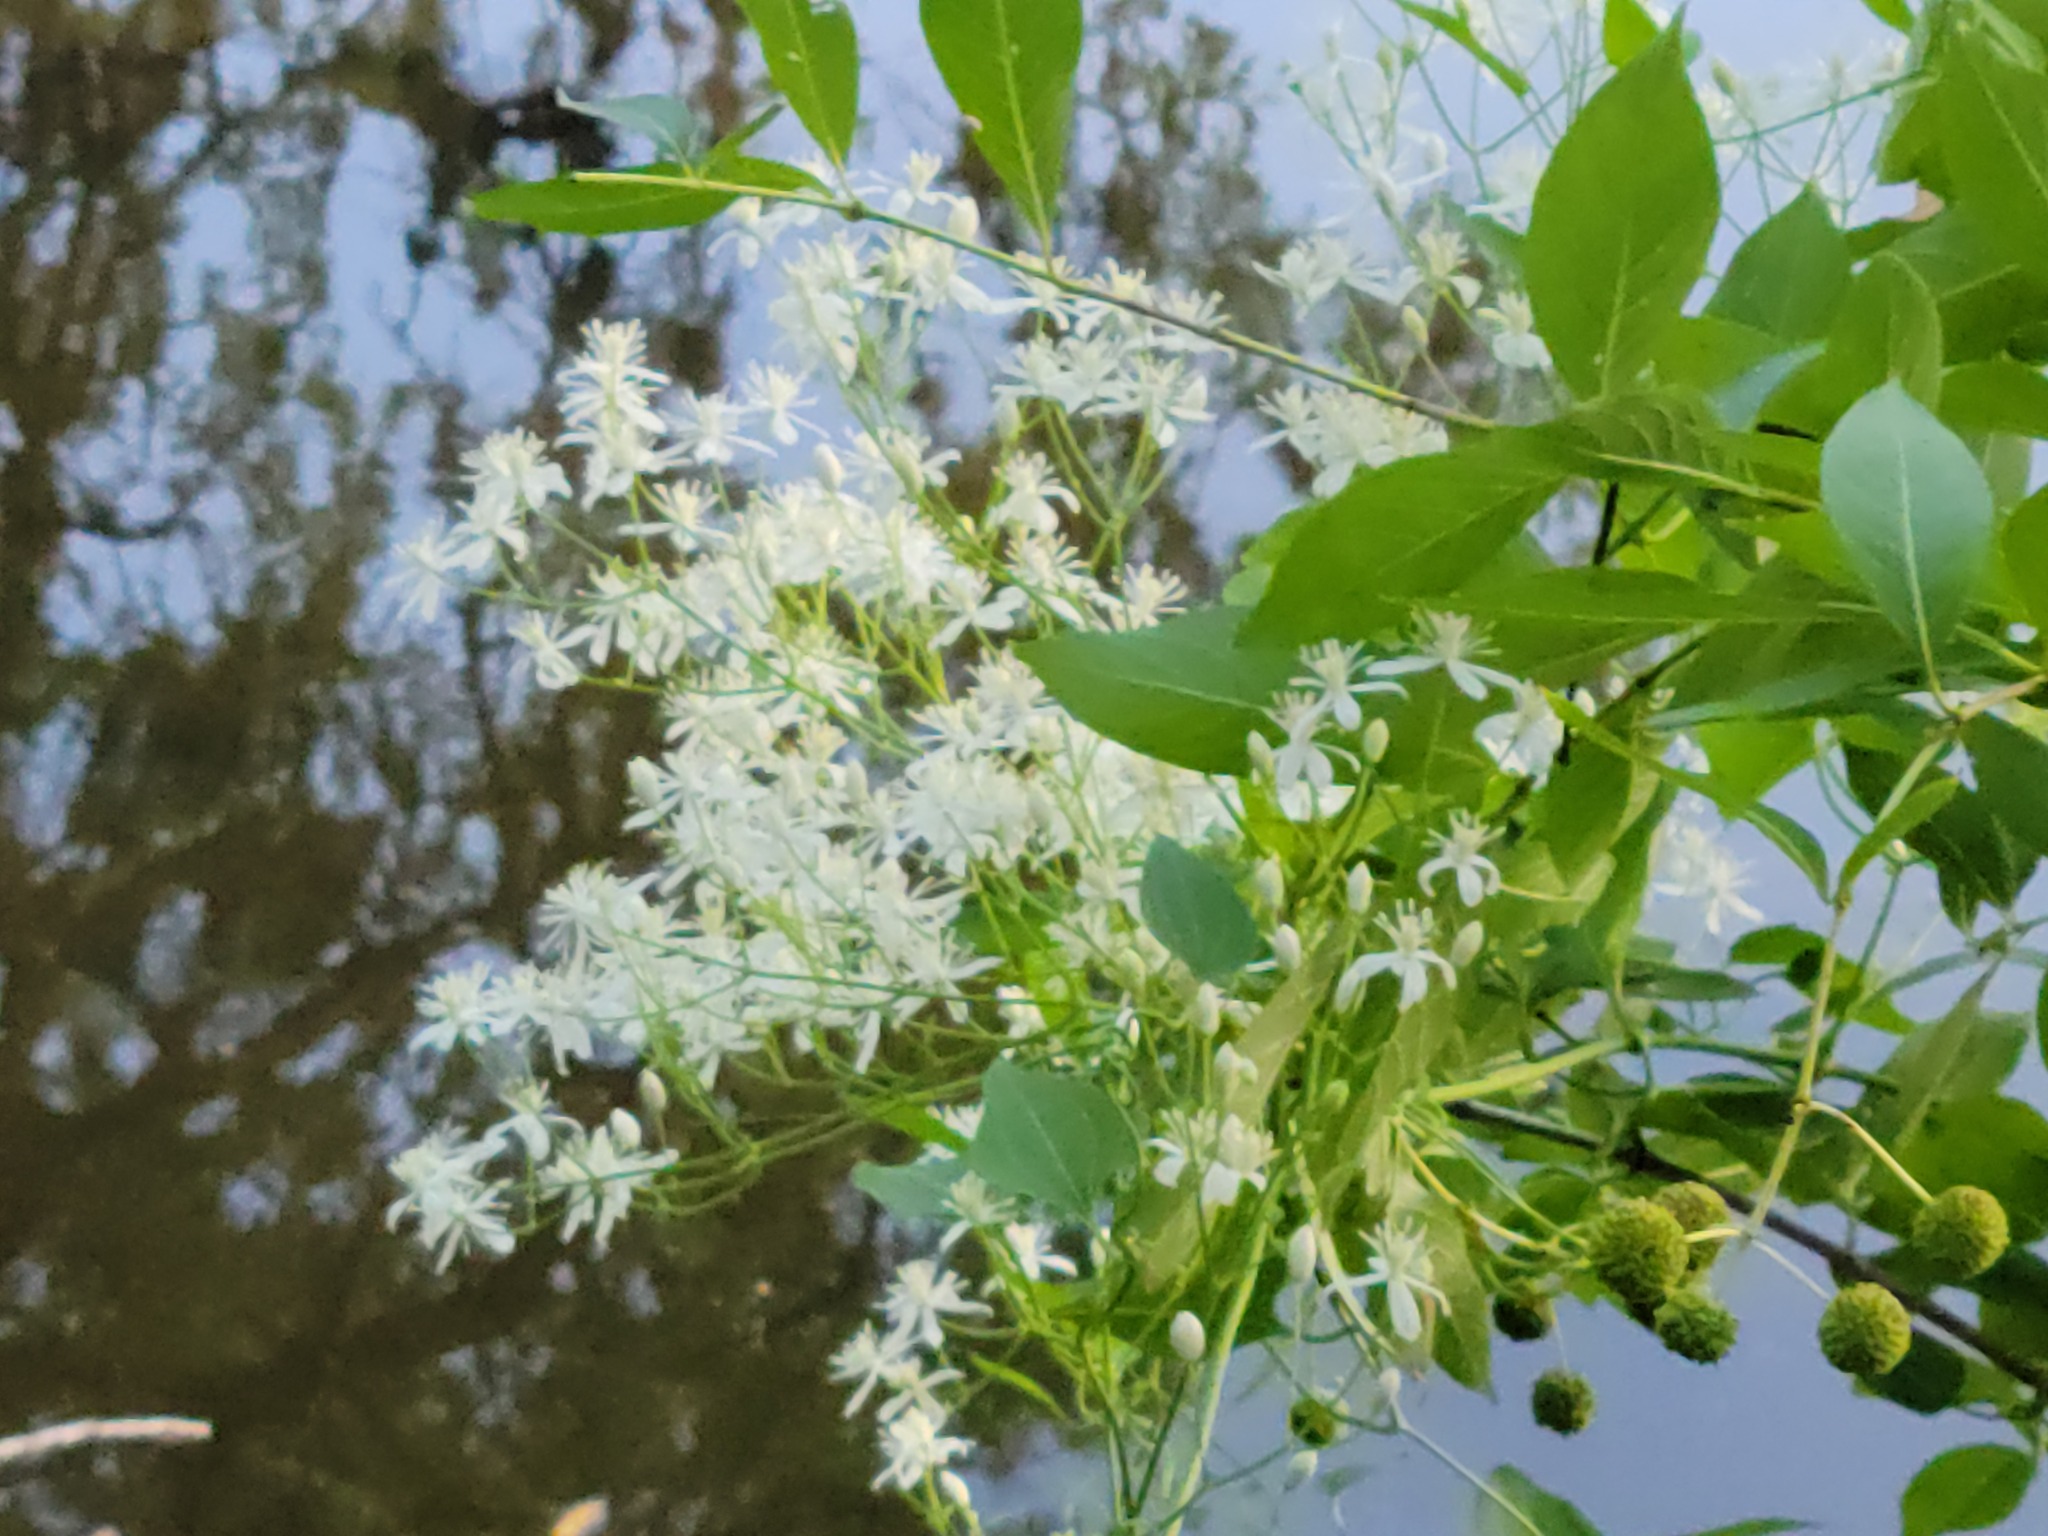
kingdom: Plantae
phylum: Tracheophyta
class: Magnoliopsida
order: Ranunculales
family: Ranunculaceae
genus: Clematis
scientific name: Clematis terniflora
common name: Sweet autumn clematis
